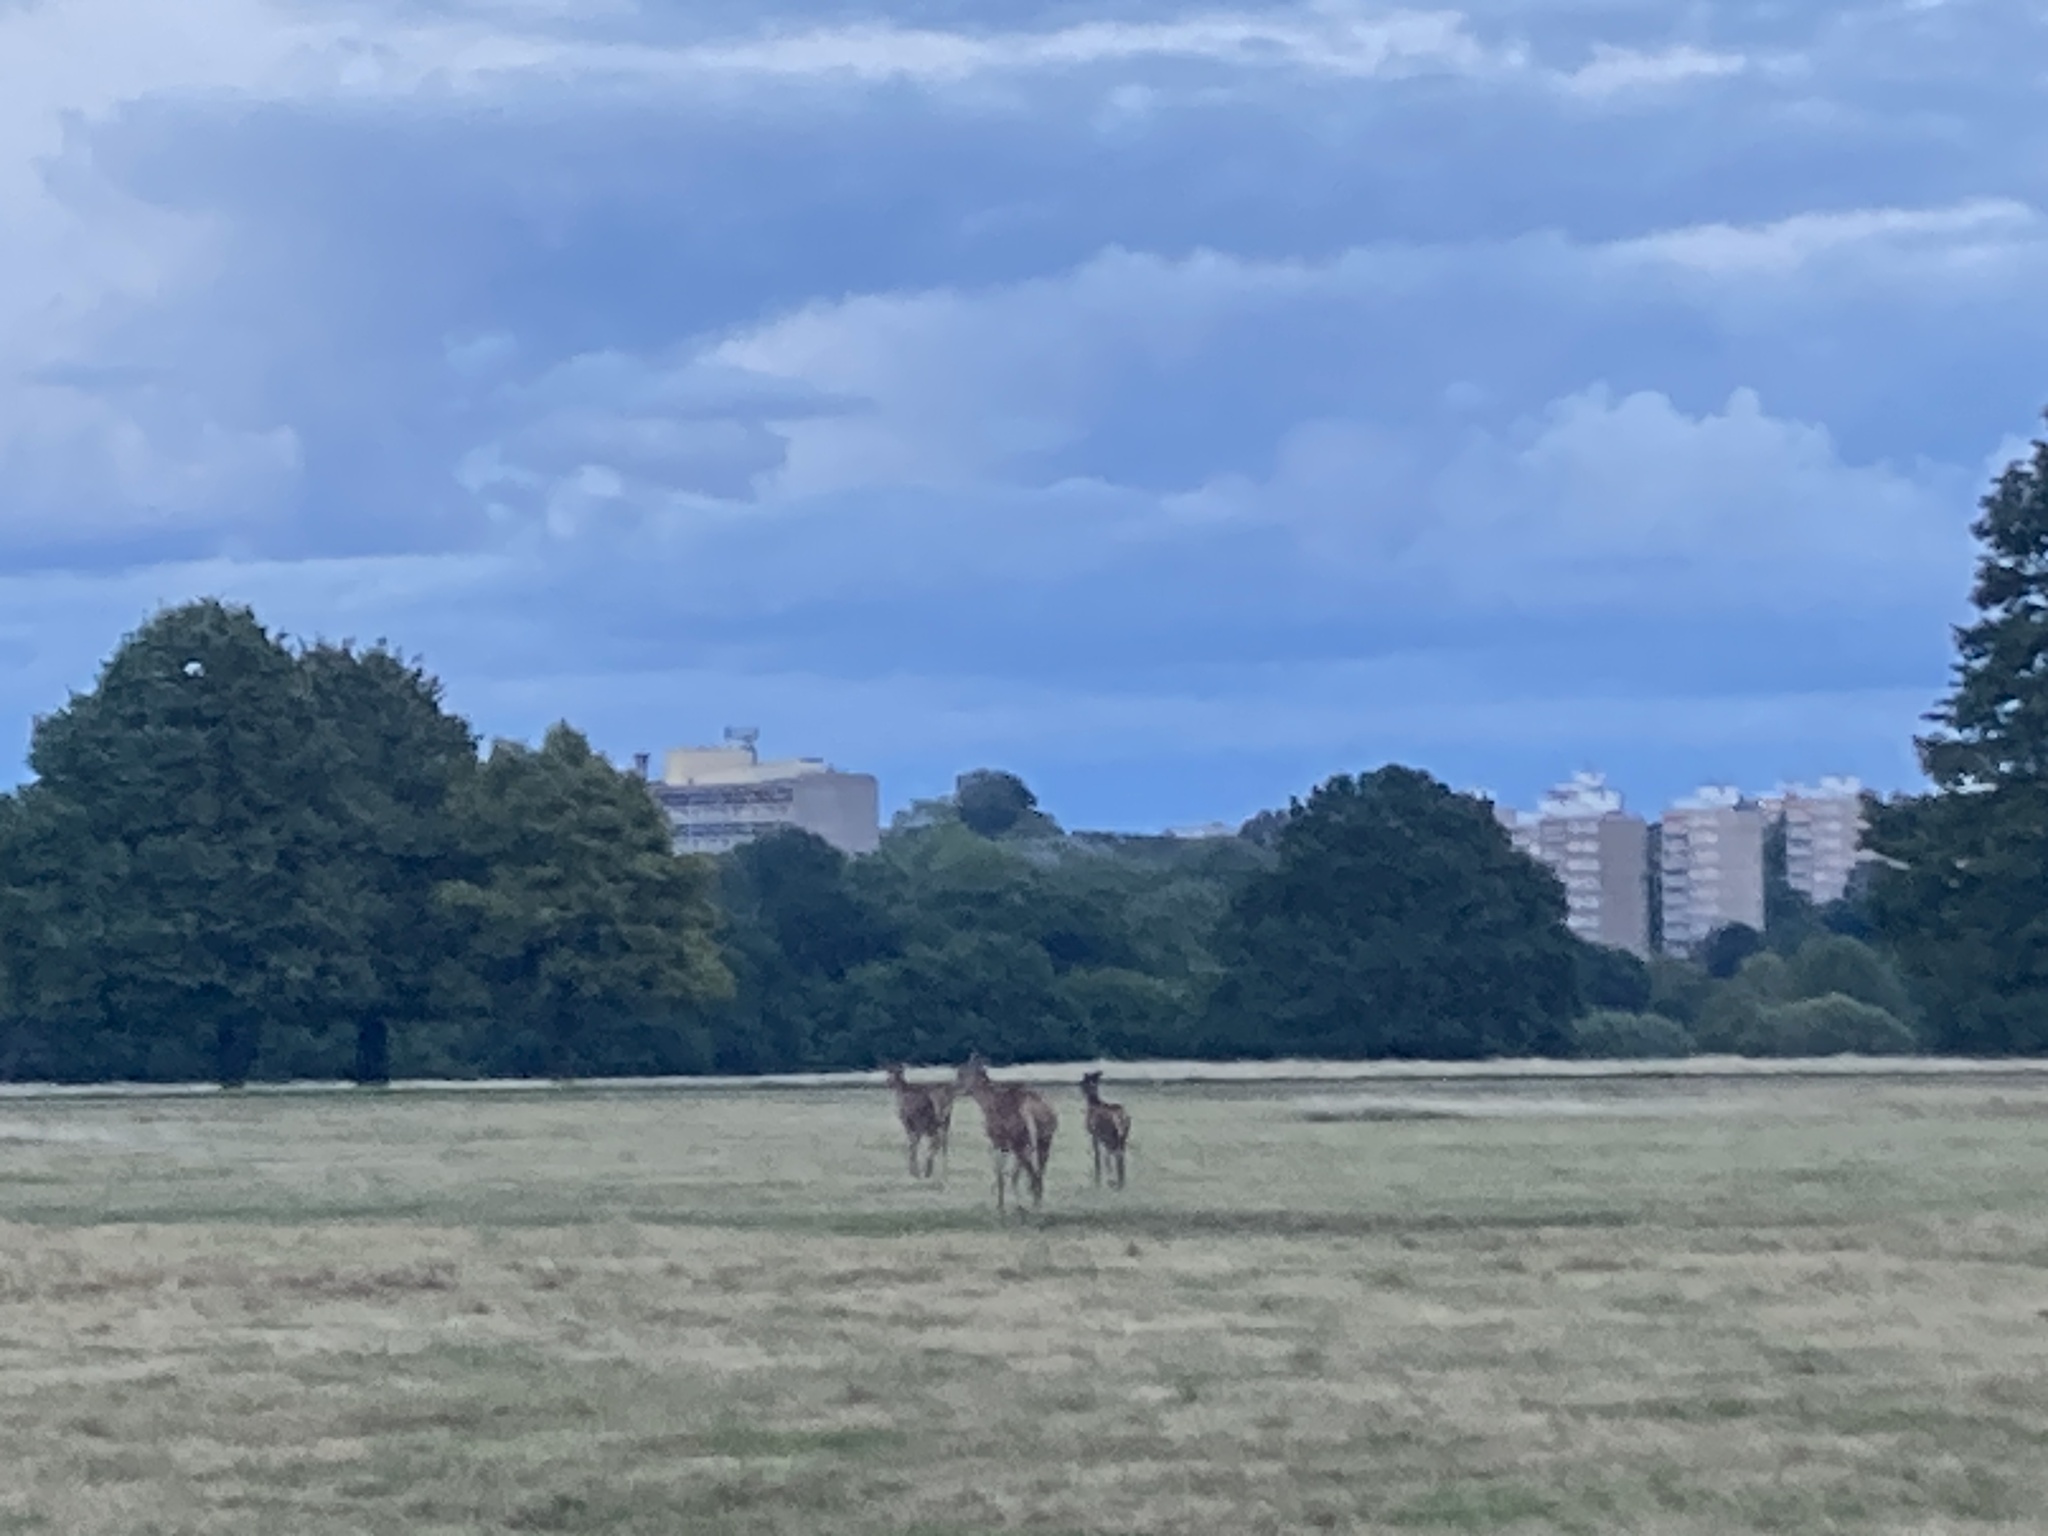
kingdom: Animalia
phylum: Chordata
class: Mammalia
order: Artiodactyla
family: Cervidae
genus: Cervus
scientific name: Cervus elaphus
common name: Red deer
